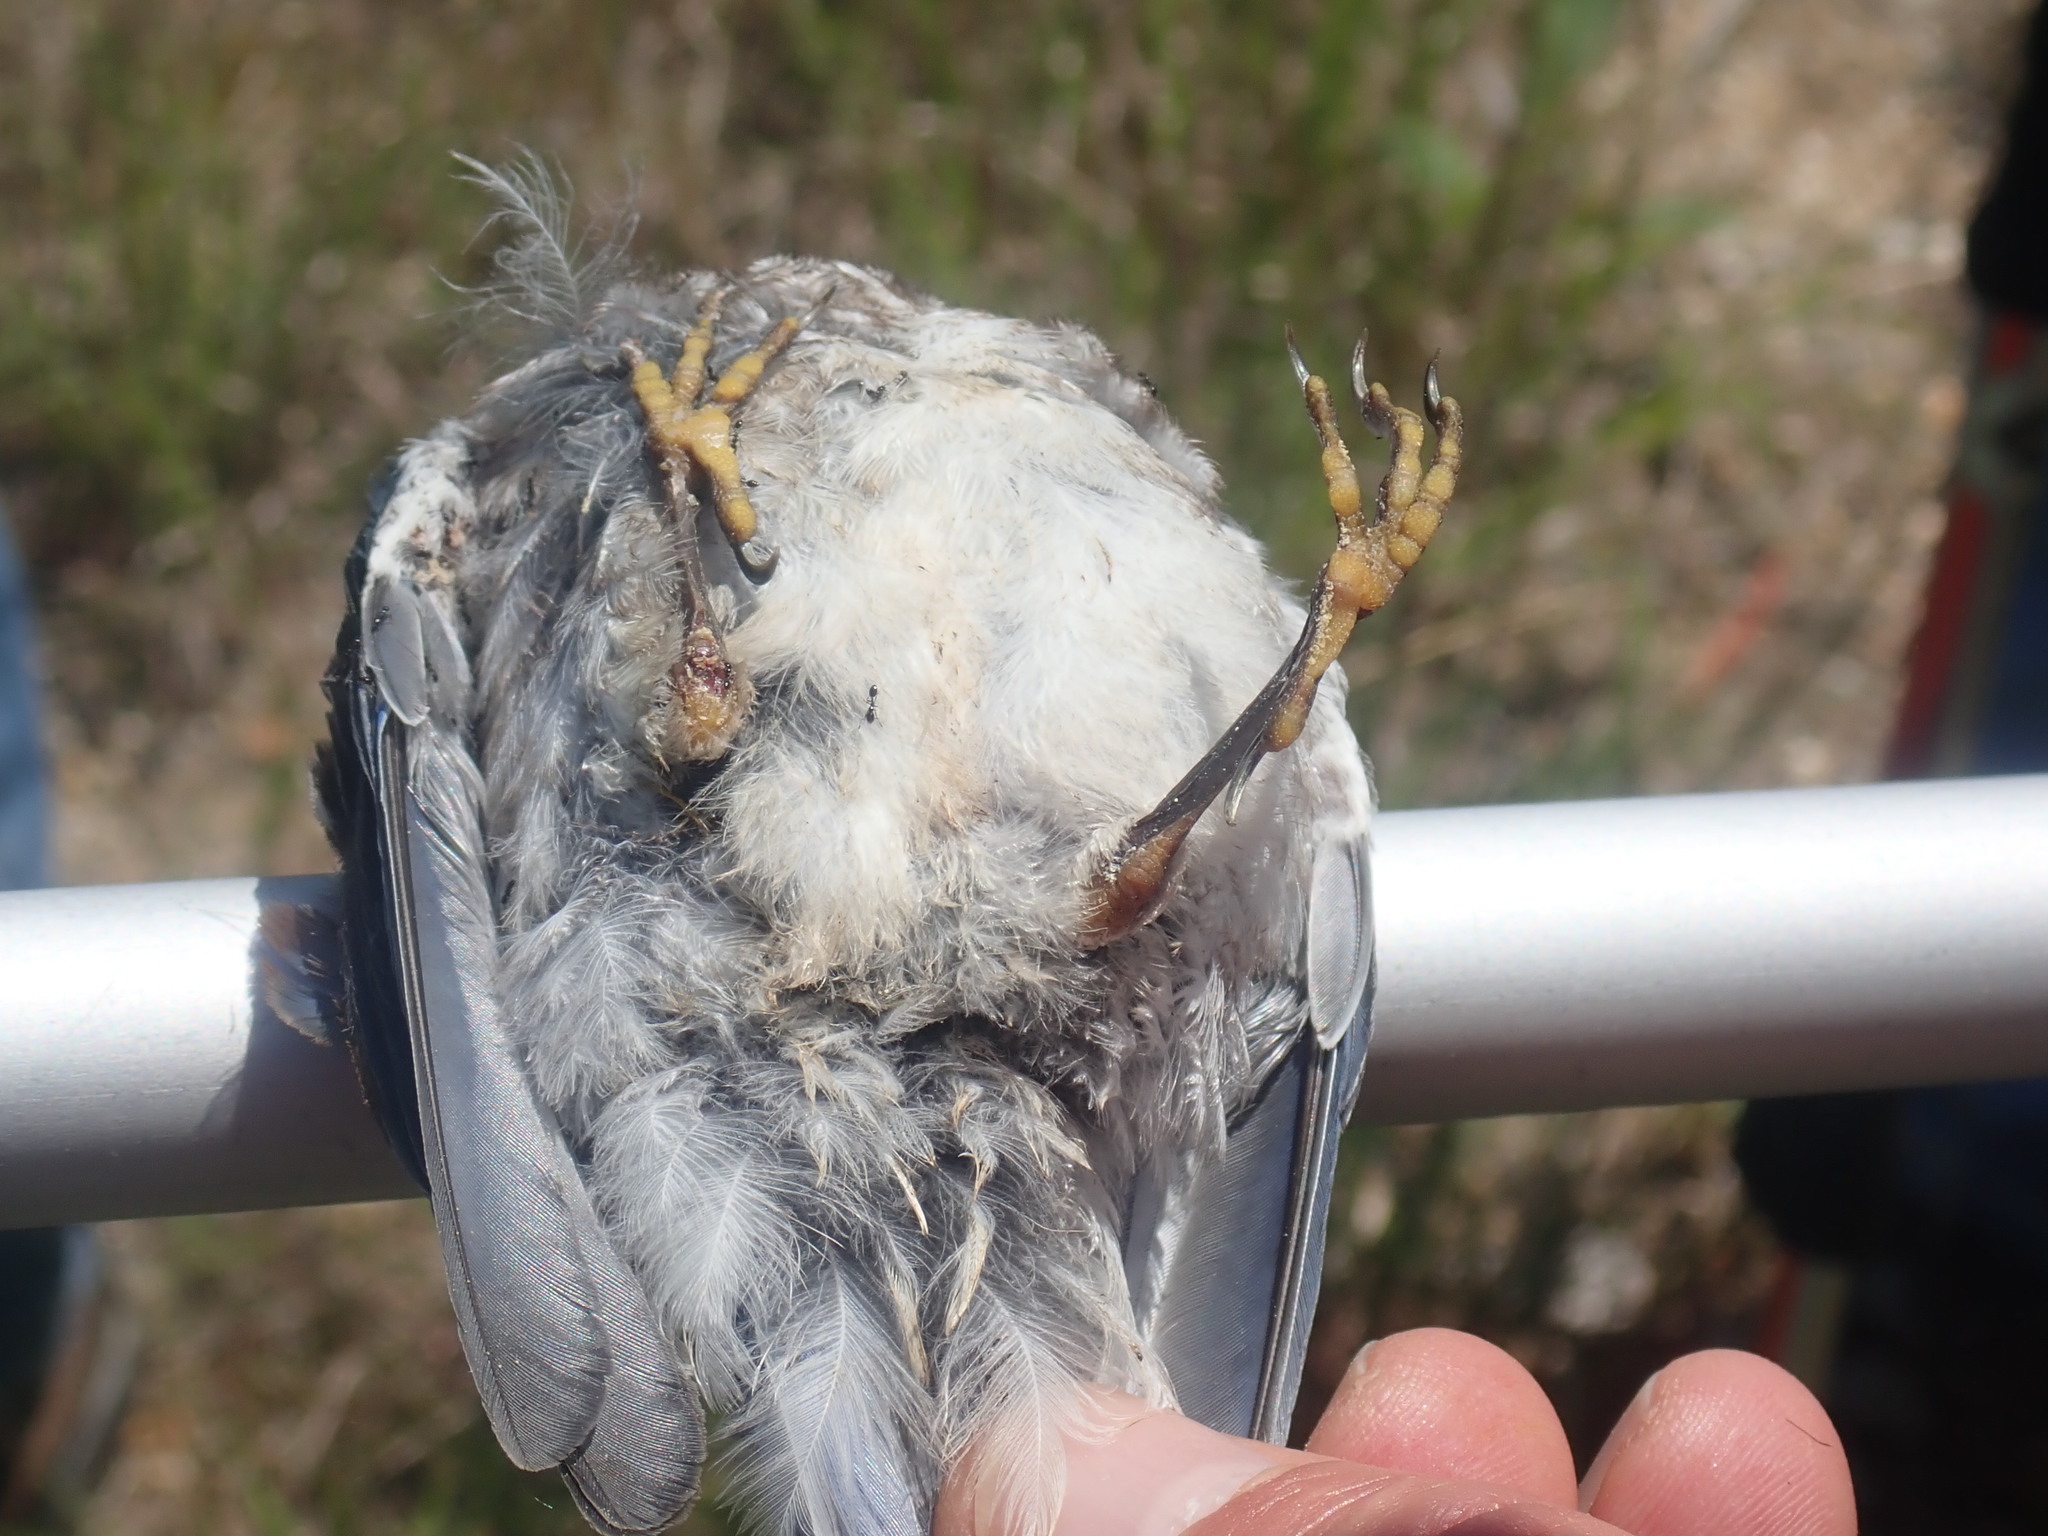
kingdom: Animalia
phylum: Chordata
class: Aves
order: Passeriformes
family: Turdidae
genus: Sialia
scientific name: Sialia sialis
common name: Eastern bluebird
